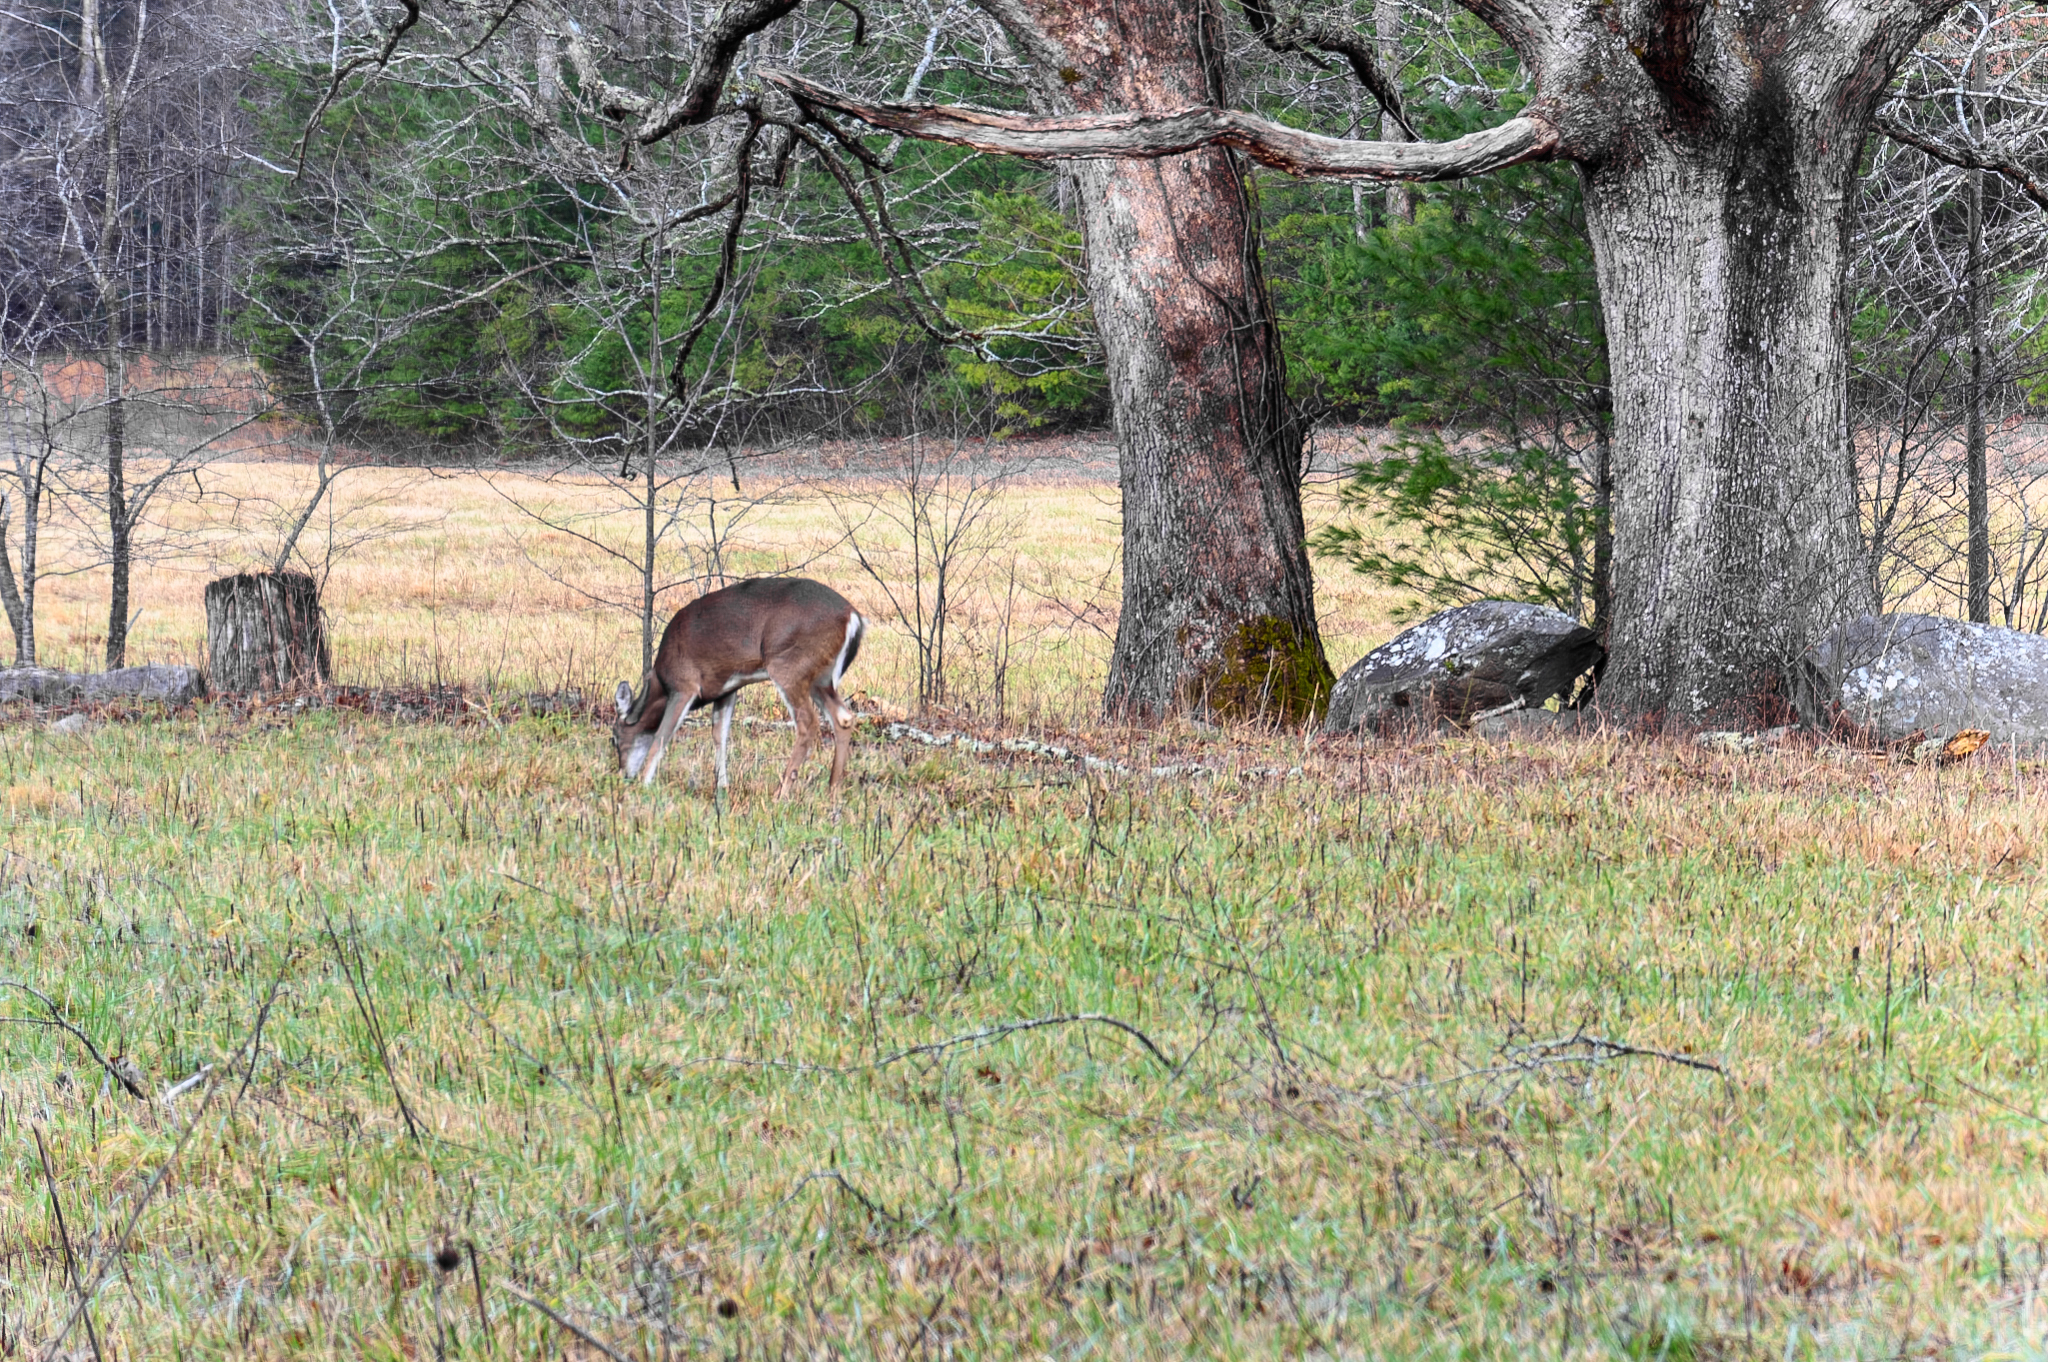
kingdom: Animalia
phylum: Chordata
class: Mammalia
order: Artiodactyla
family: Cervidae
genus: Odocoileus
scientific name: Odocoileus virginianus
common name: White-tailed deer
